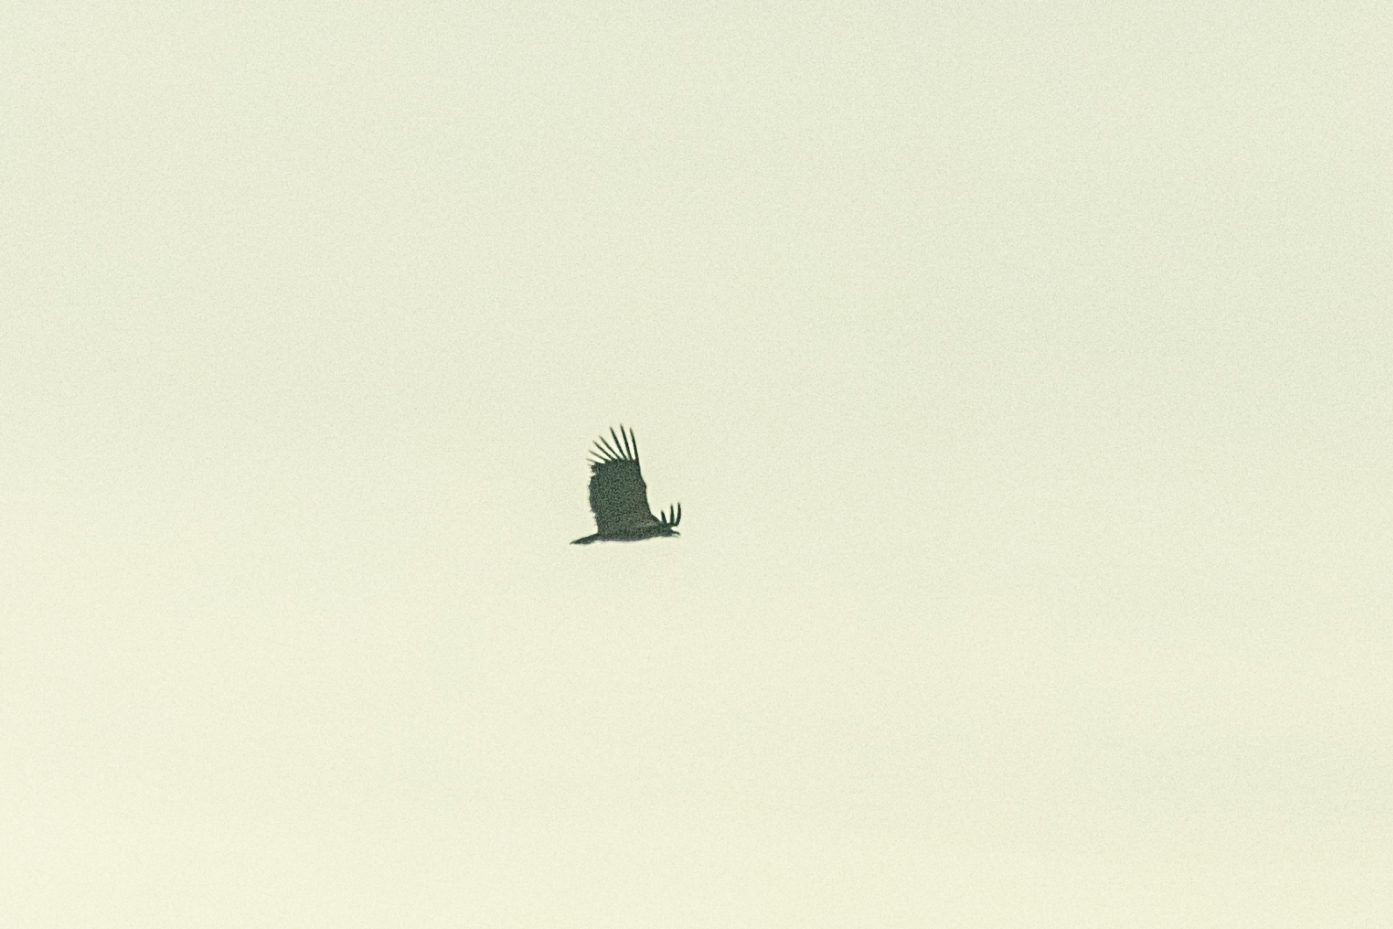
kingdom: Animalia
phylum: Chordata
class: Aves
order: Accipitriformes
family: Accipitridae
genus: Aegypius
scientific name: Aegypius monachus
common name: Cinereous vulture
